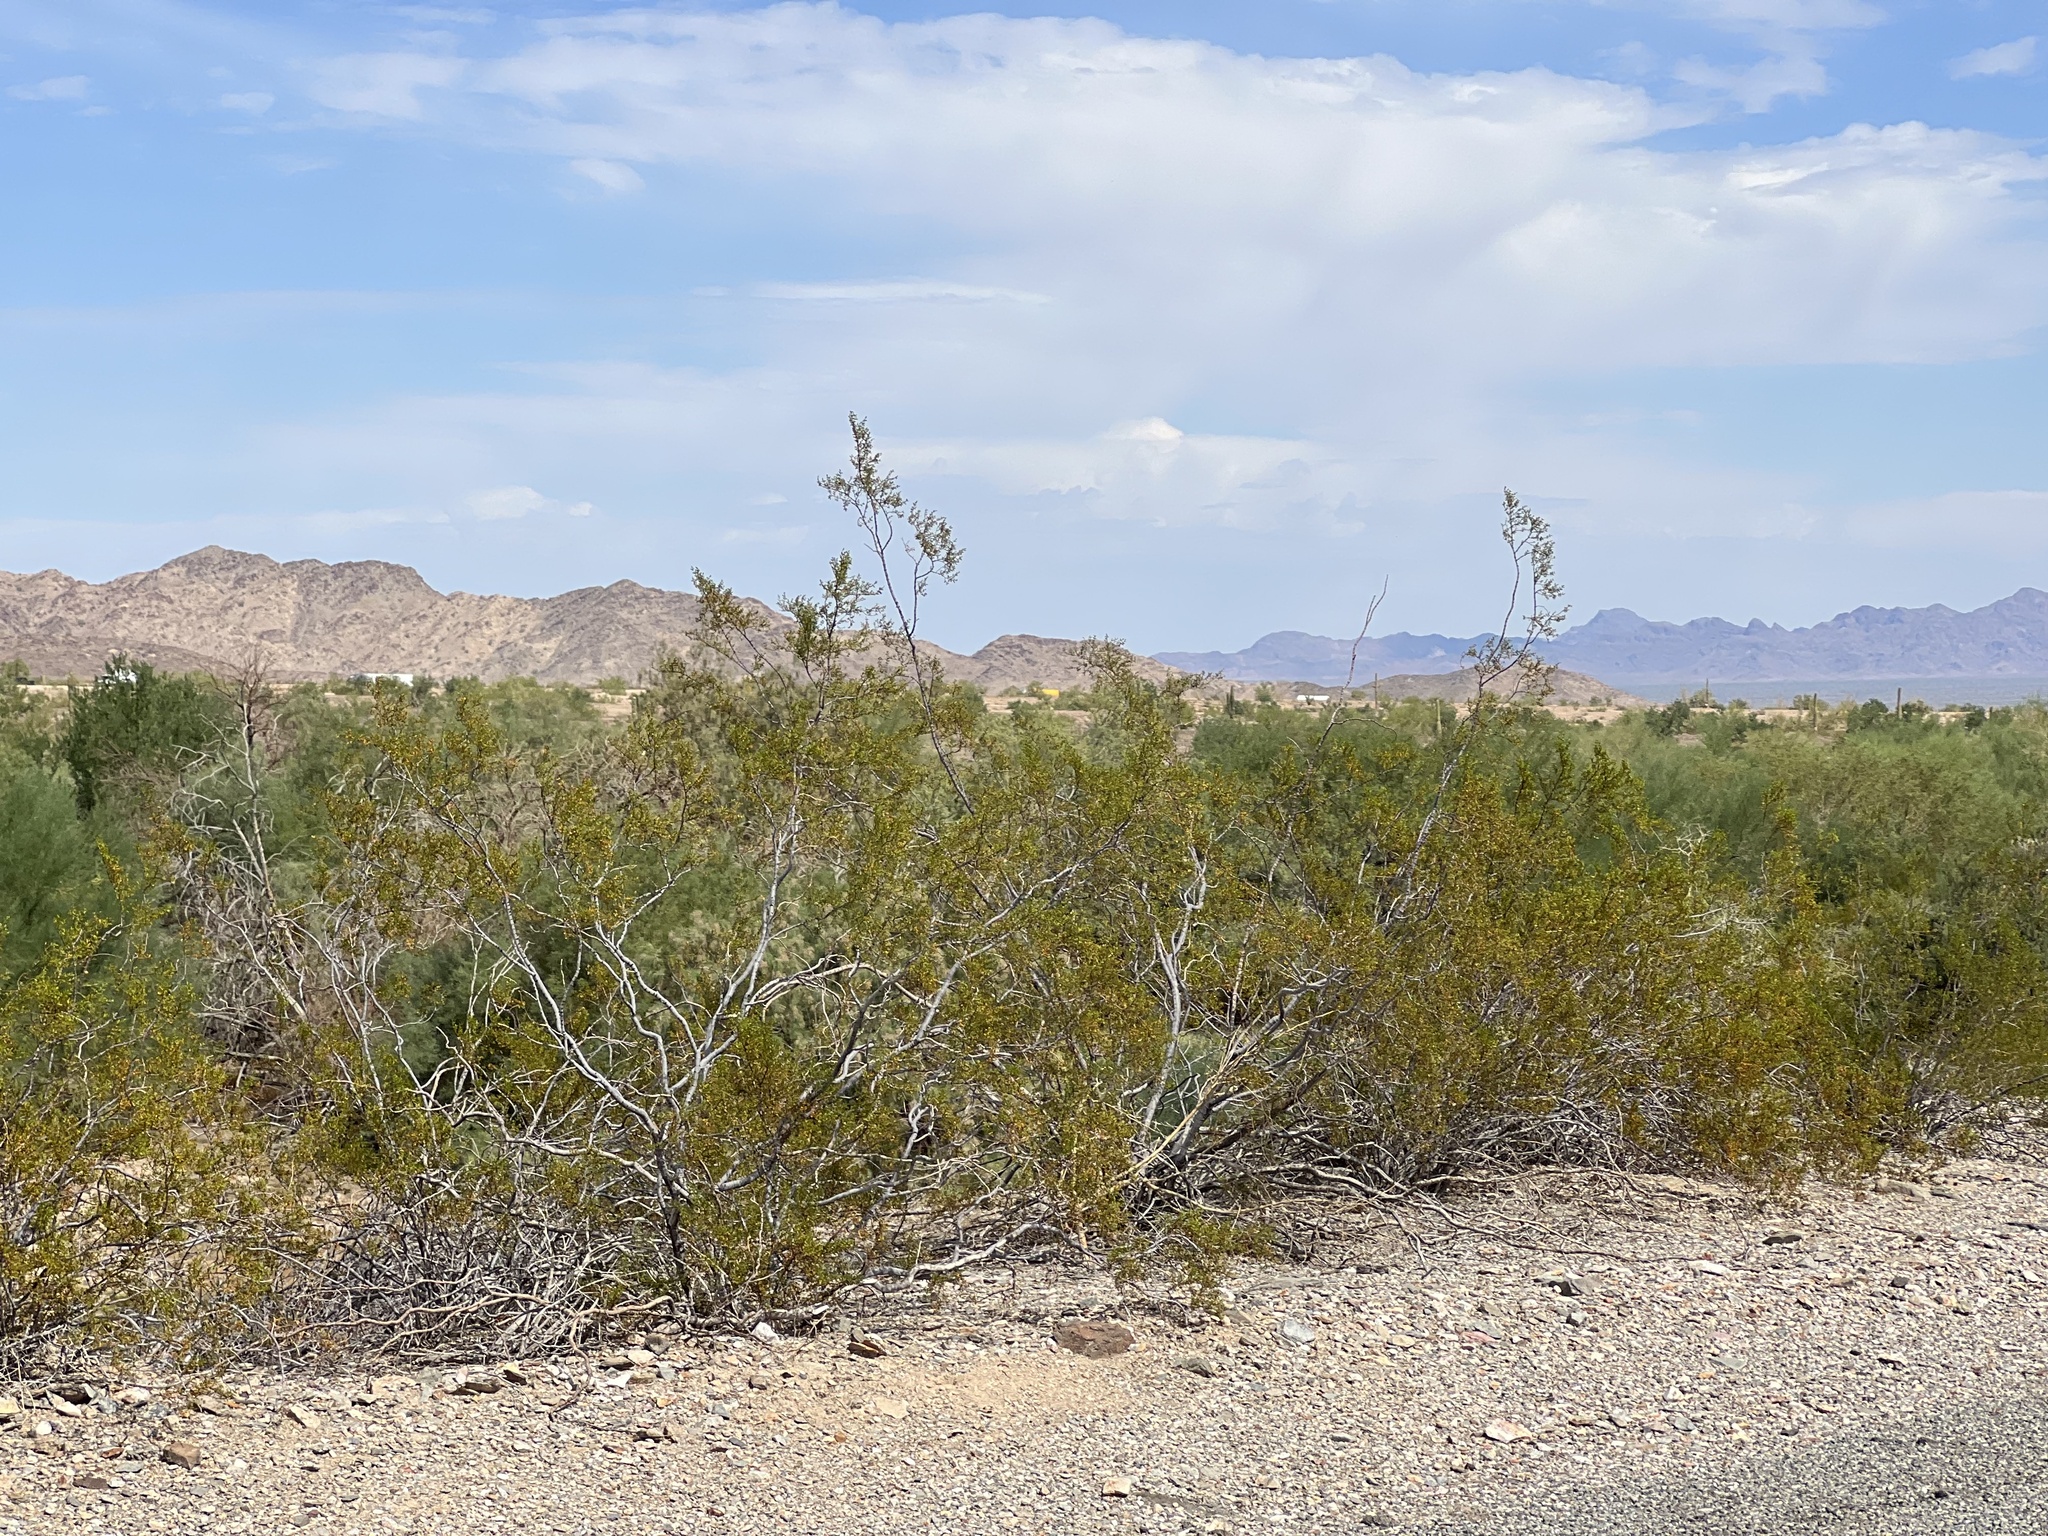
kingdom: Plantae
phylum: Tracheophyta
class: Magnoliopsida
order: Zygophyllales
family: Zygophyllaceae
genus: Larrea
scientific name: Larrea tridentata
